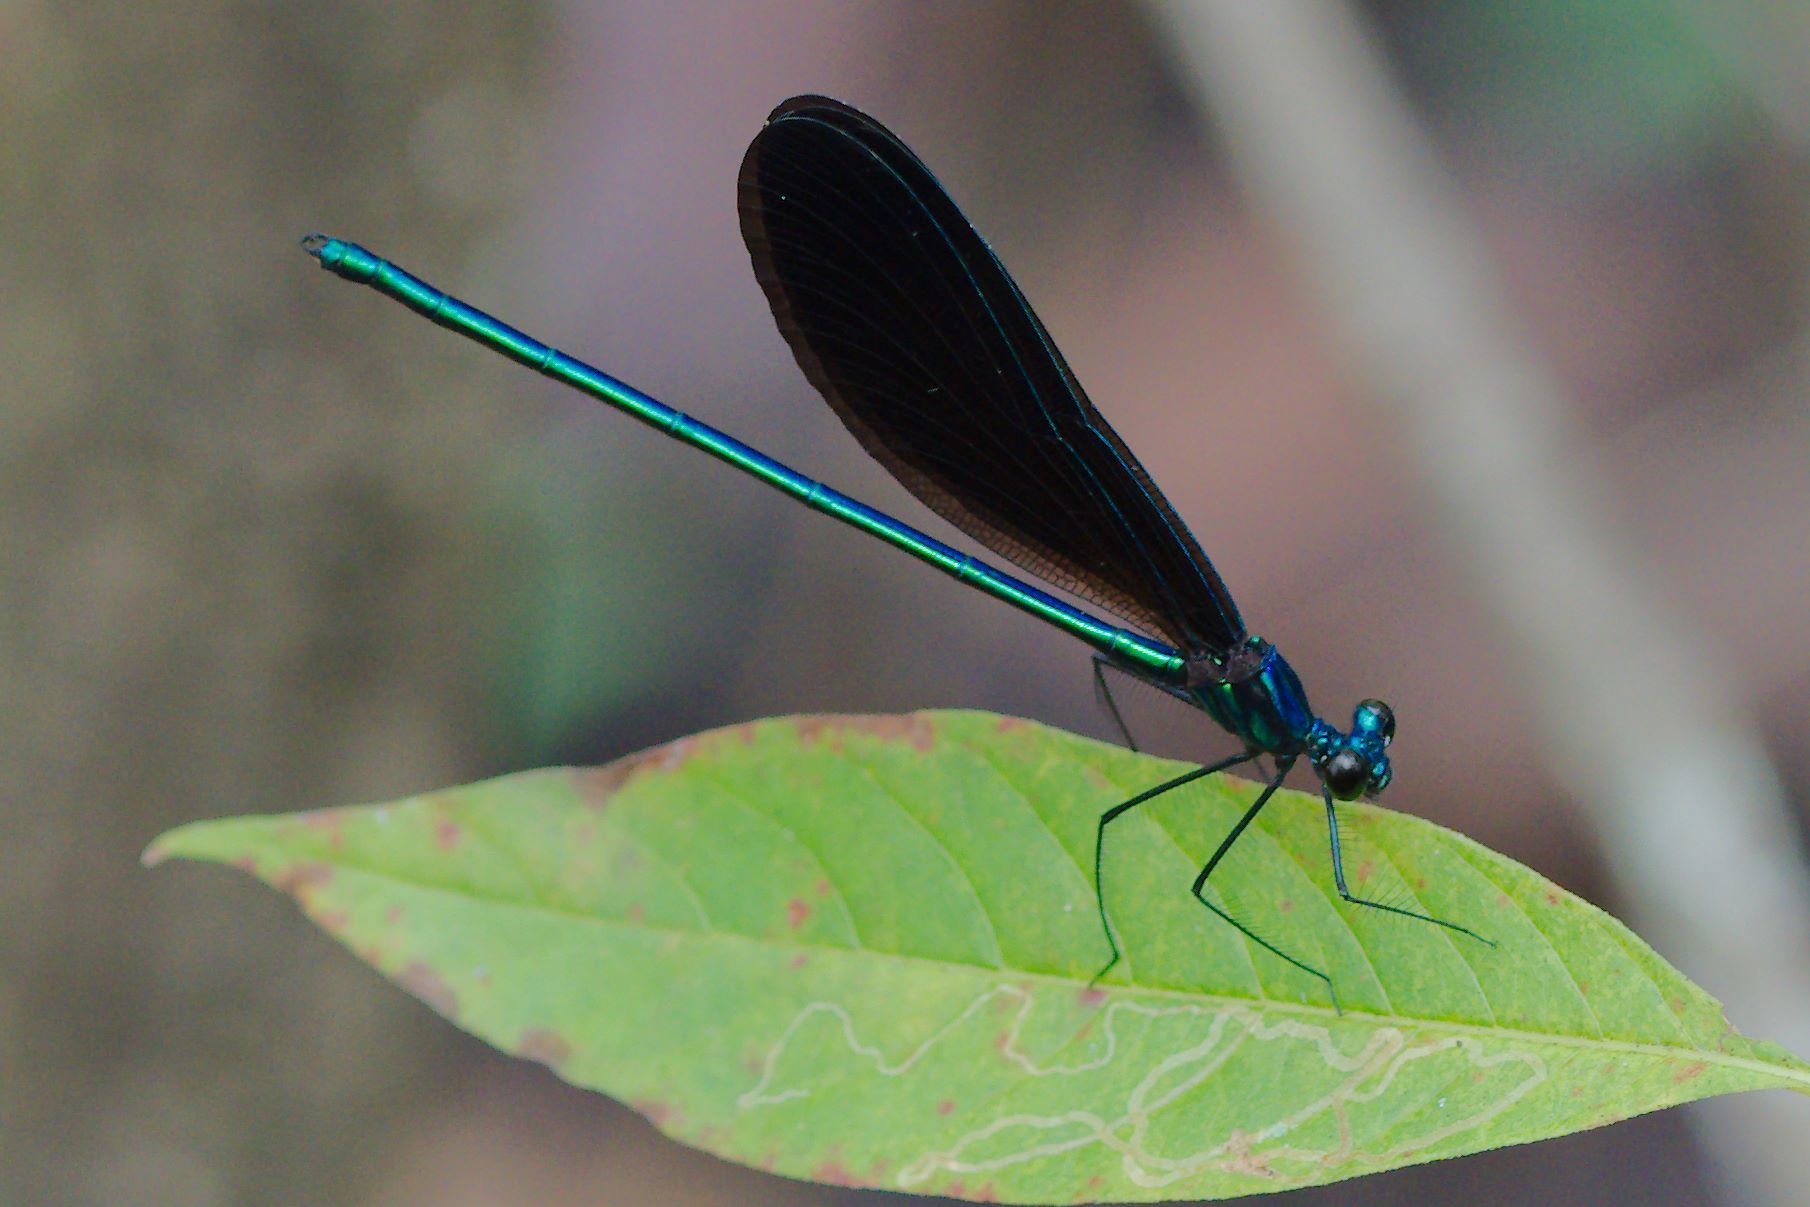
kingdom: Animalia
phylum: Arthropoda
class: Insecta
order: Odonata
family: Calopterygidae
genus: Calopteryx
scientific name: Calopteryx maculata
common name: Ebony jewelwing
